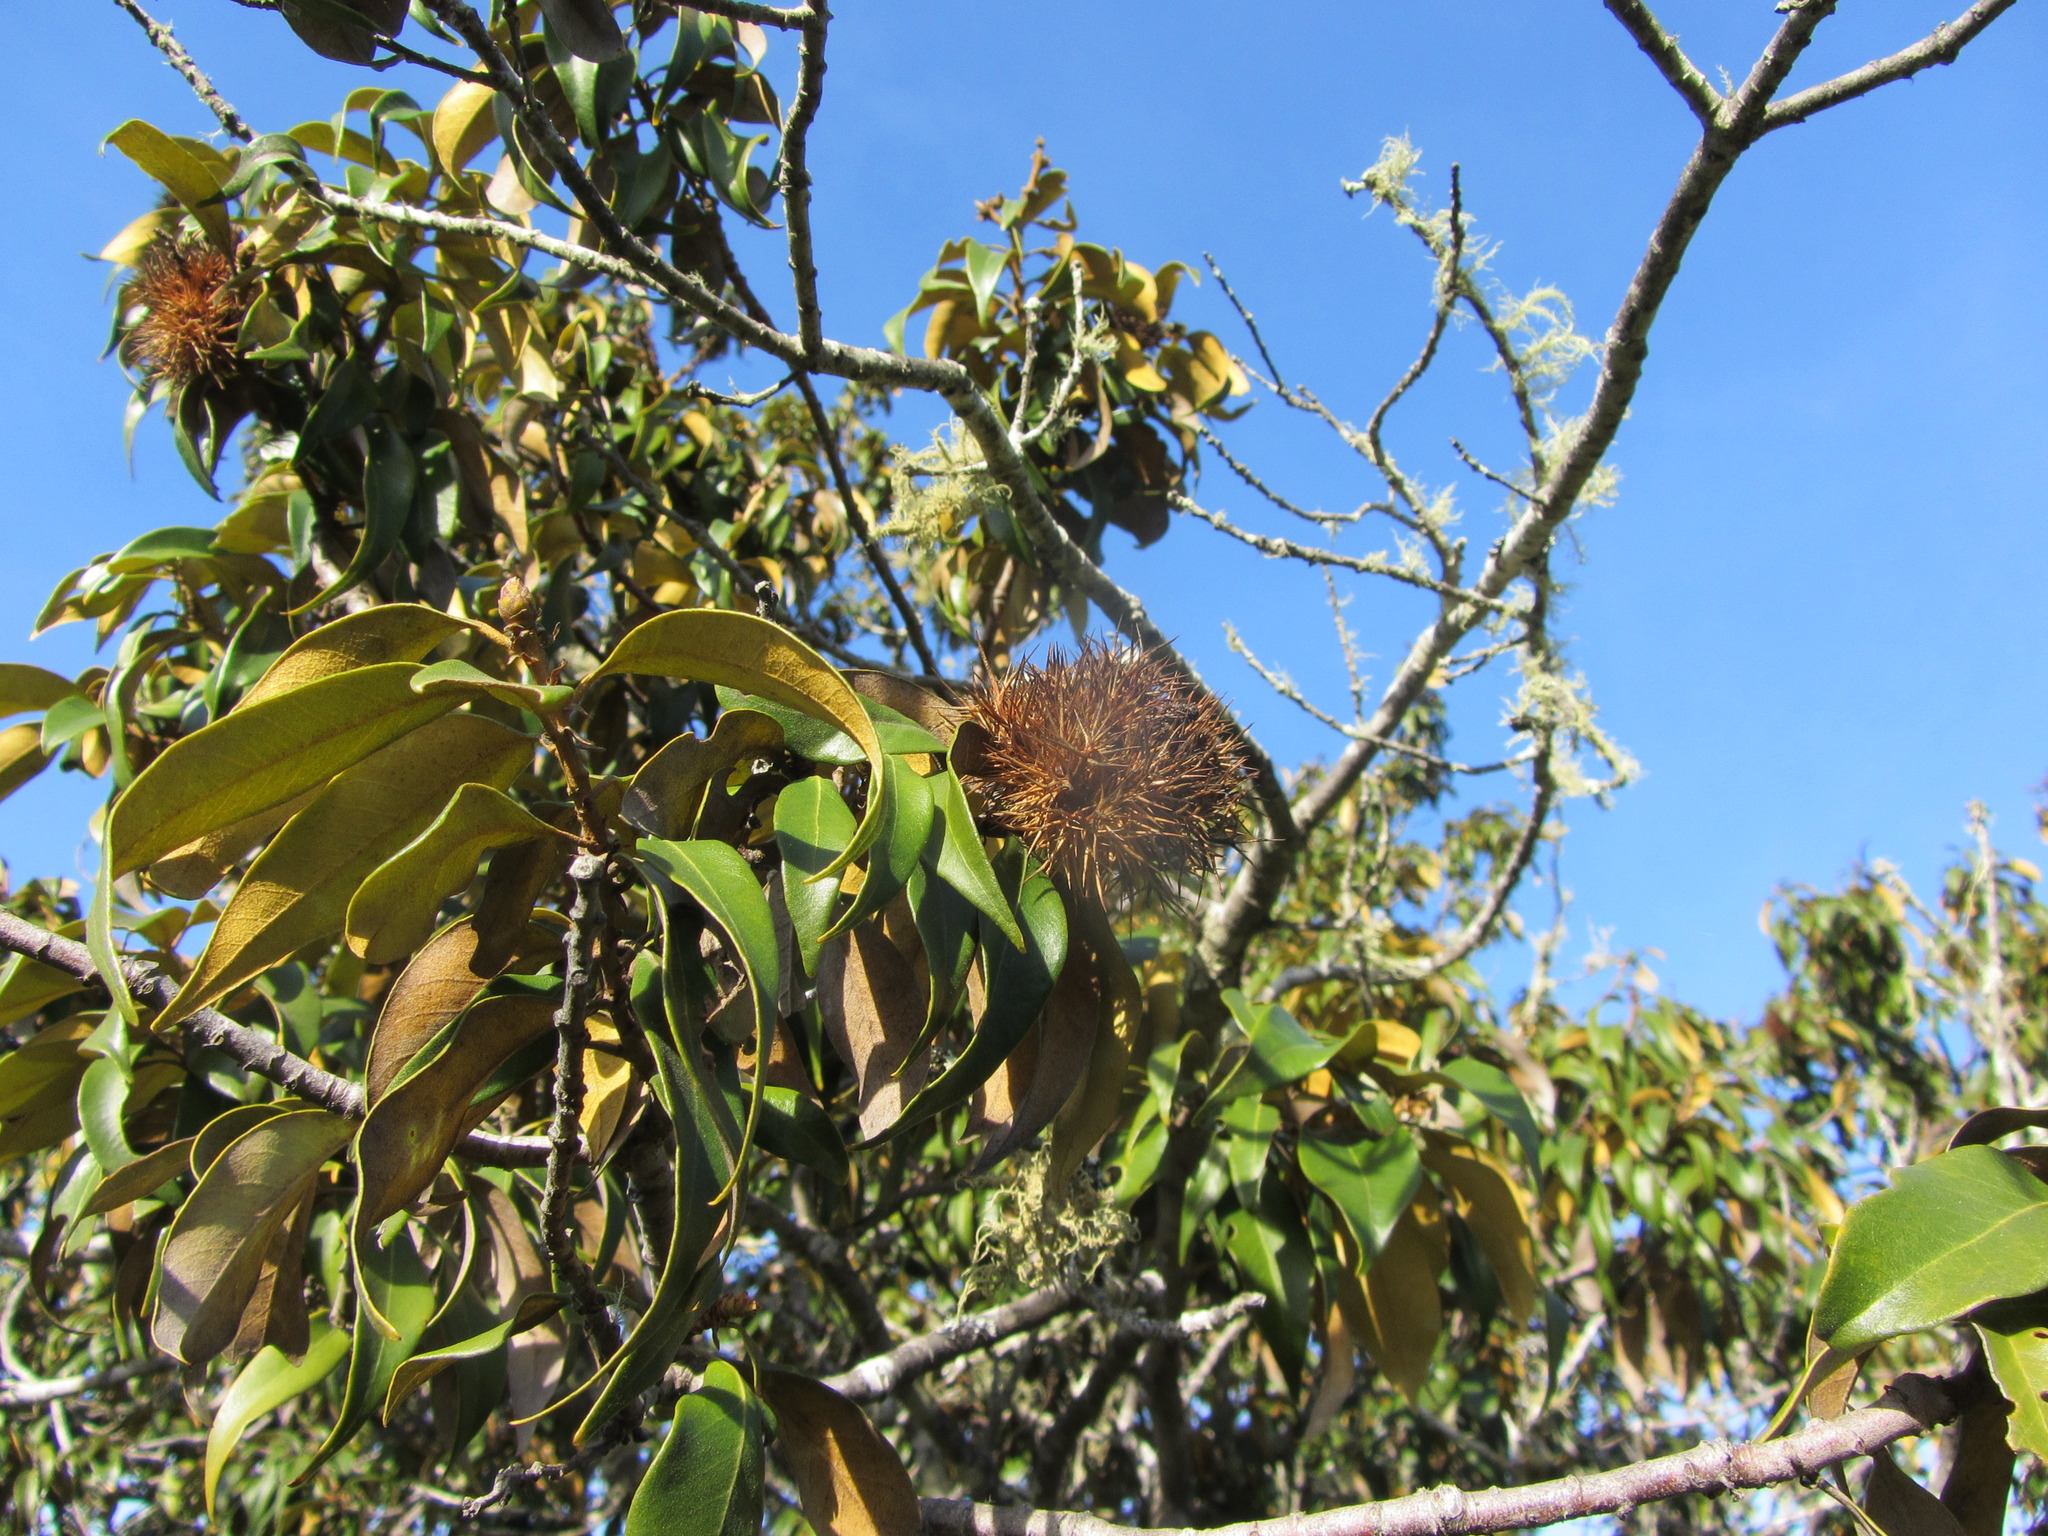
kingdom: Plantae
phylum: Tracheophyta
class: Magnoliopsida
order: Fagales
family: Fagaceae
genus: Chrysolepis
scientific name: Chrysolepis chrysophylla
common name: Giant chinquapin
